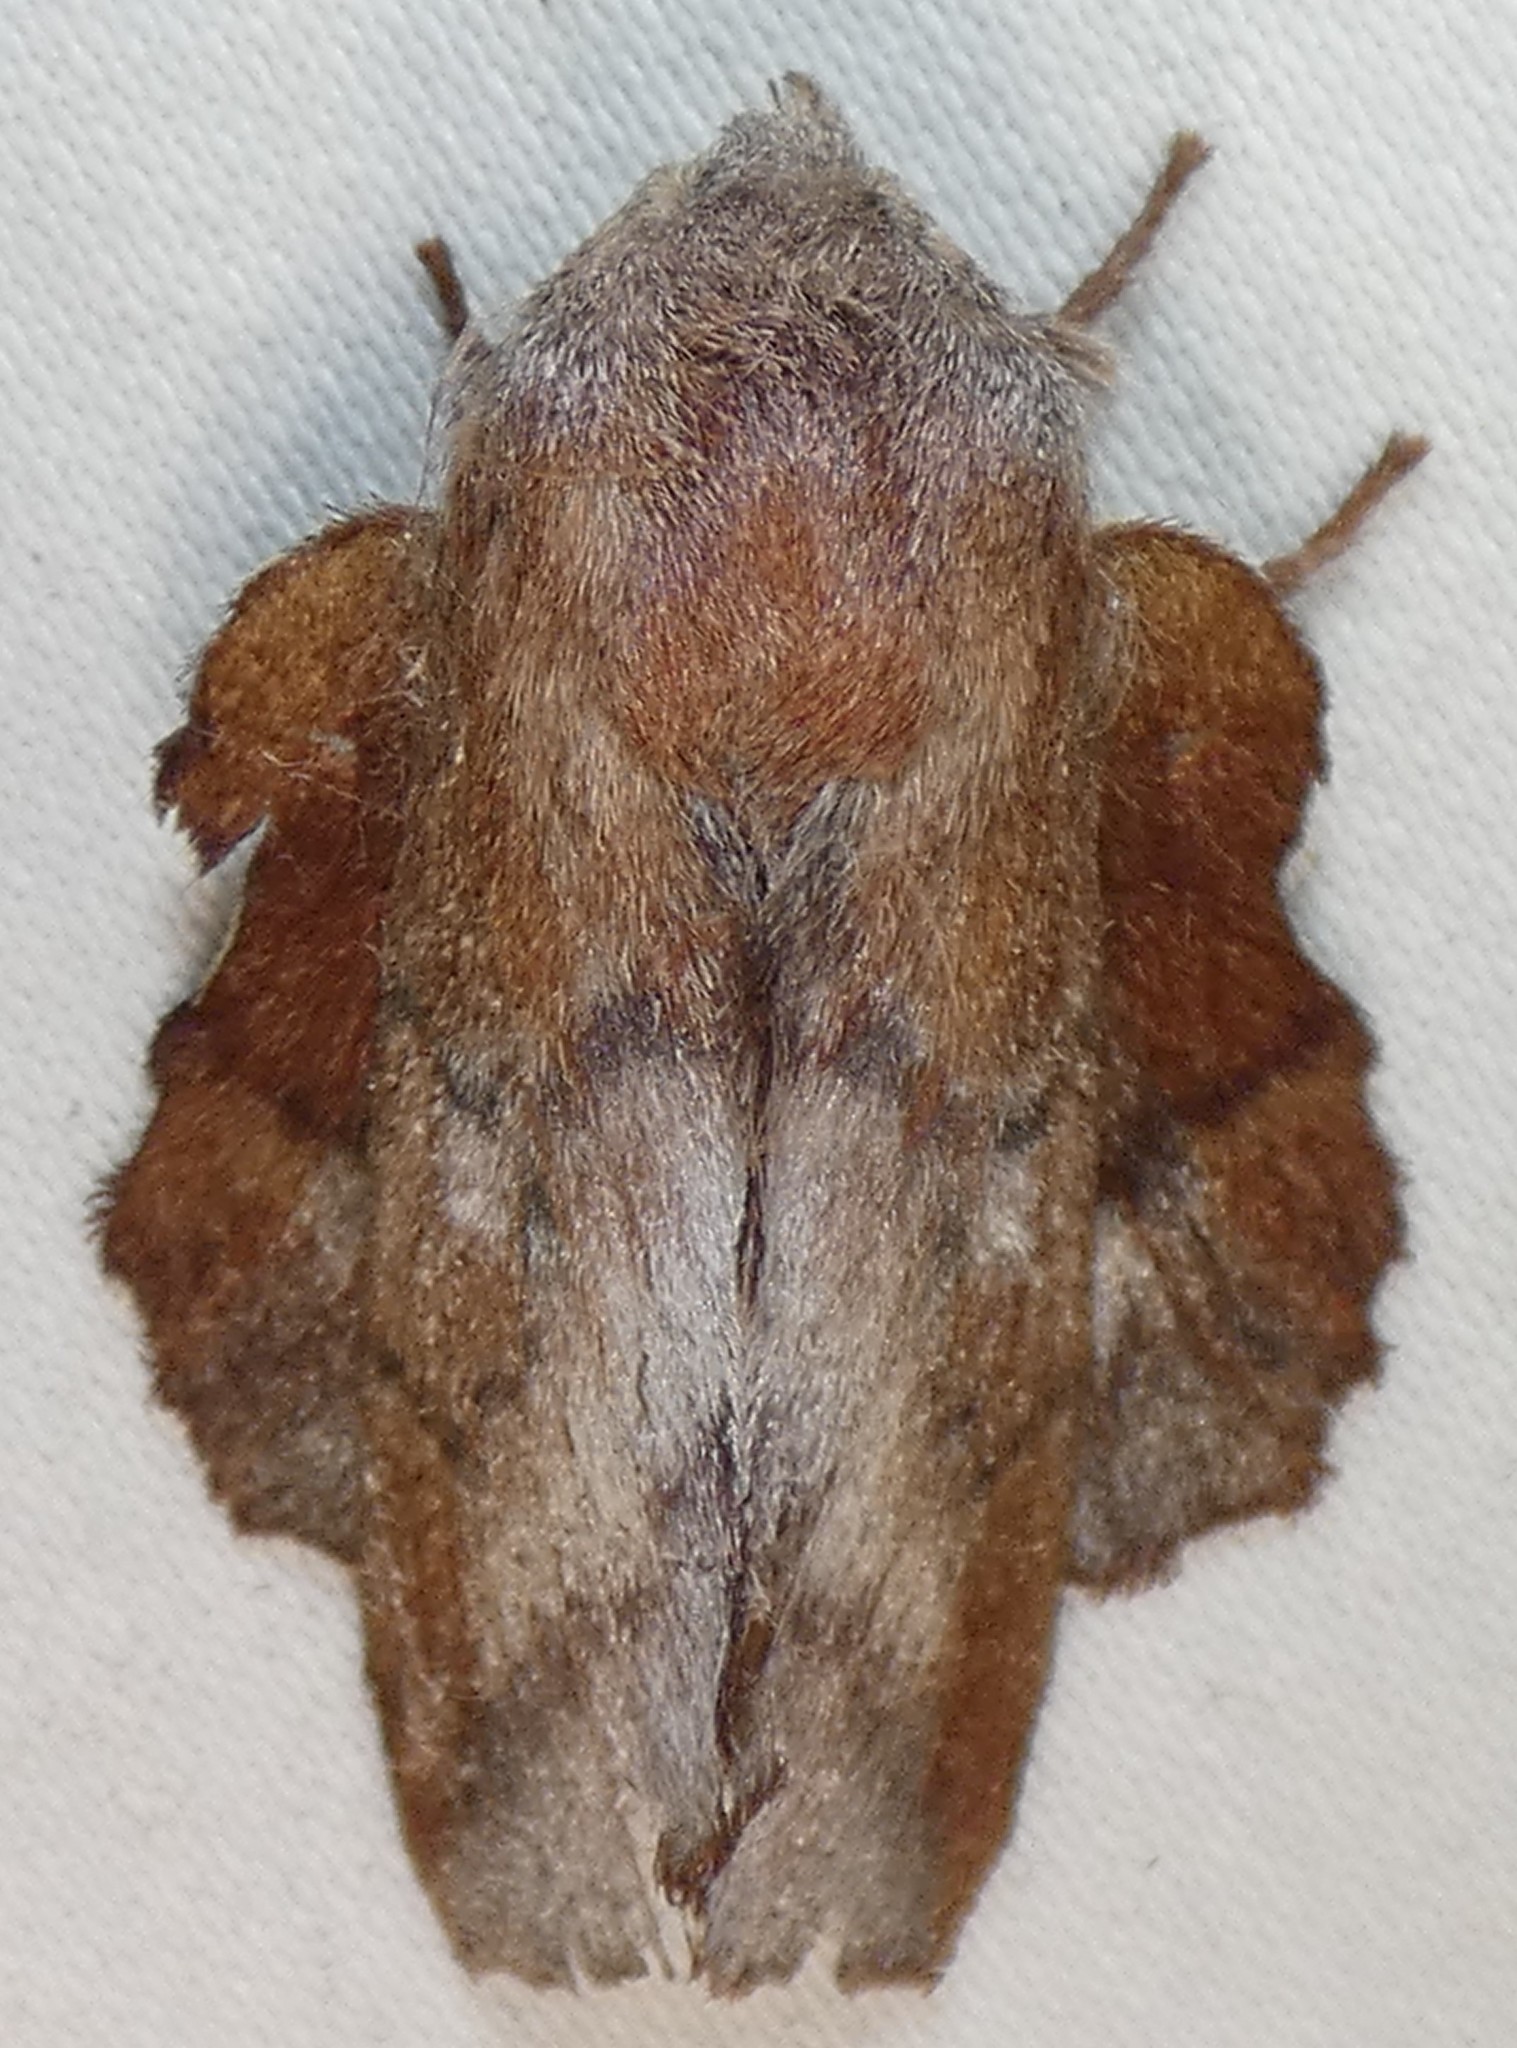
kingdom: Animalia
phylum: Arthropoda
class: Insecta
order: Lepidoptera
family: Lasiocampidae
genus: Phyllodesma
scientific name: Phyllodesma americana
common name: American lappet moth
